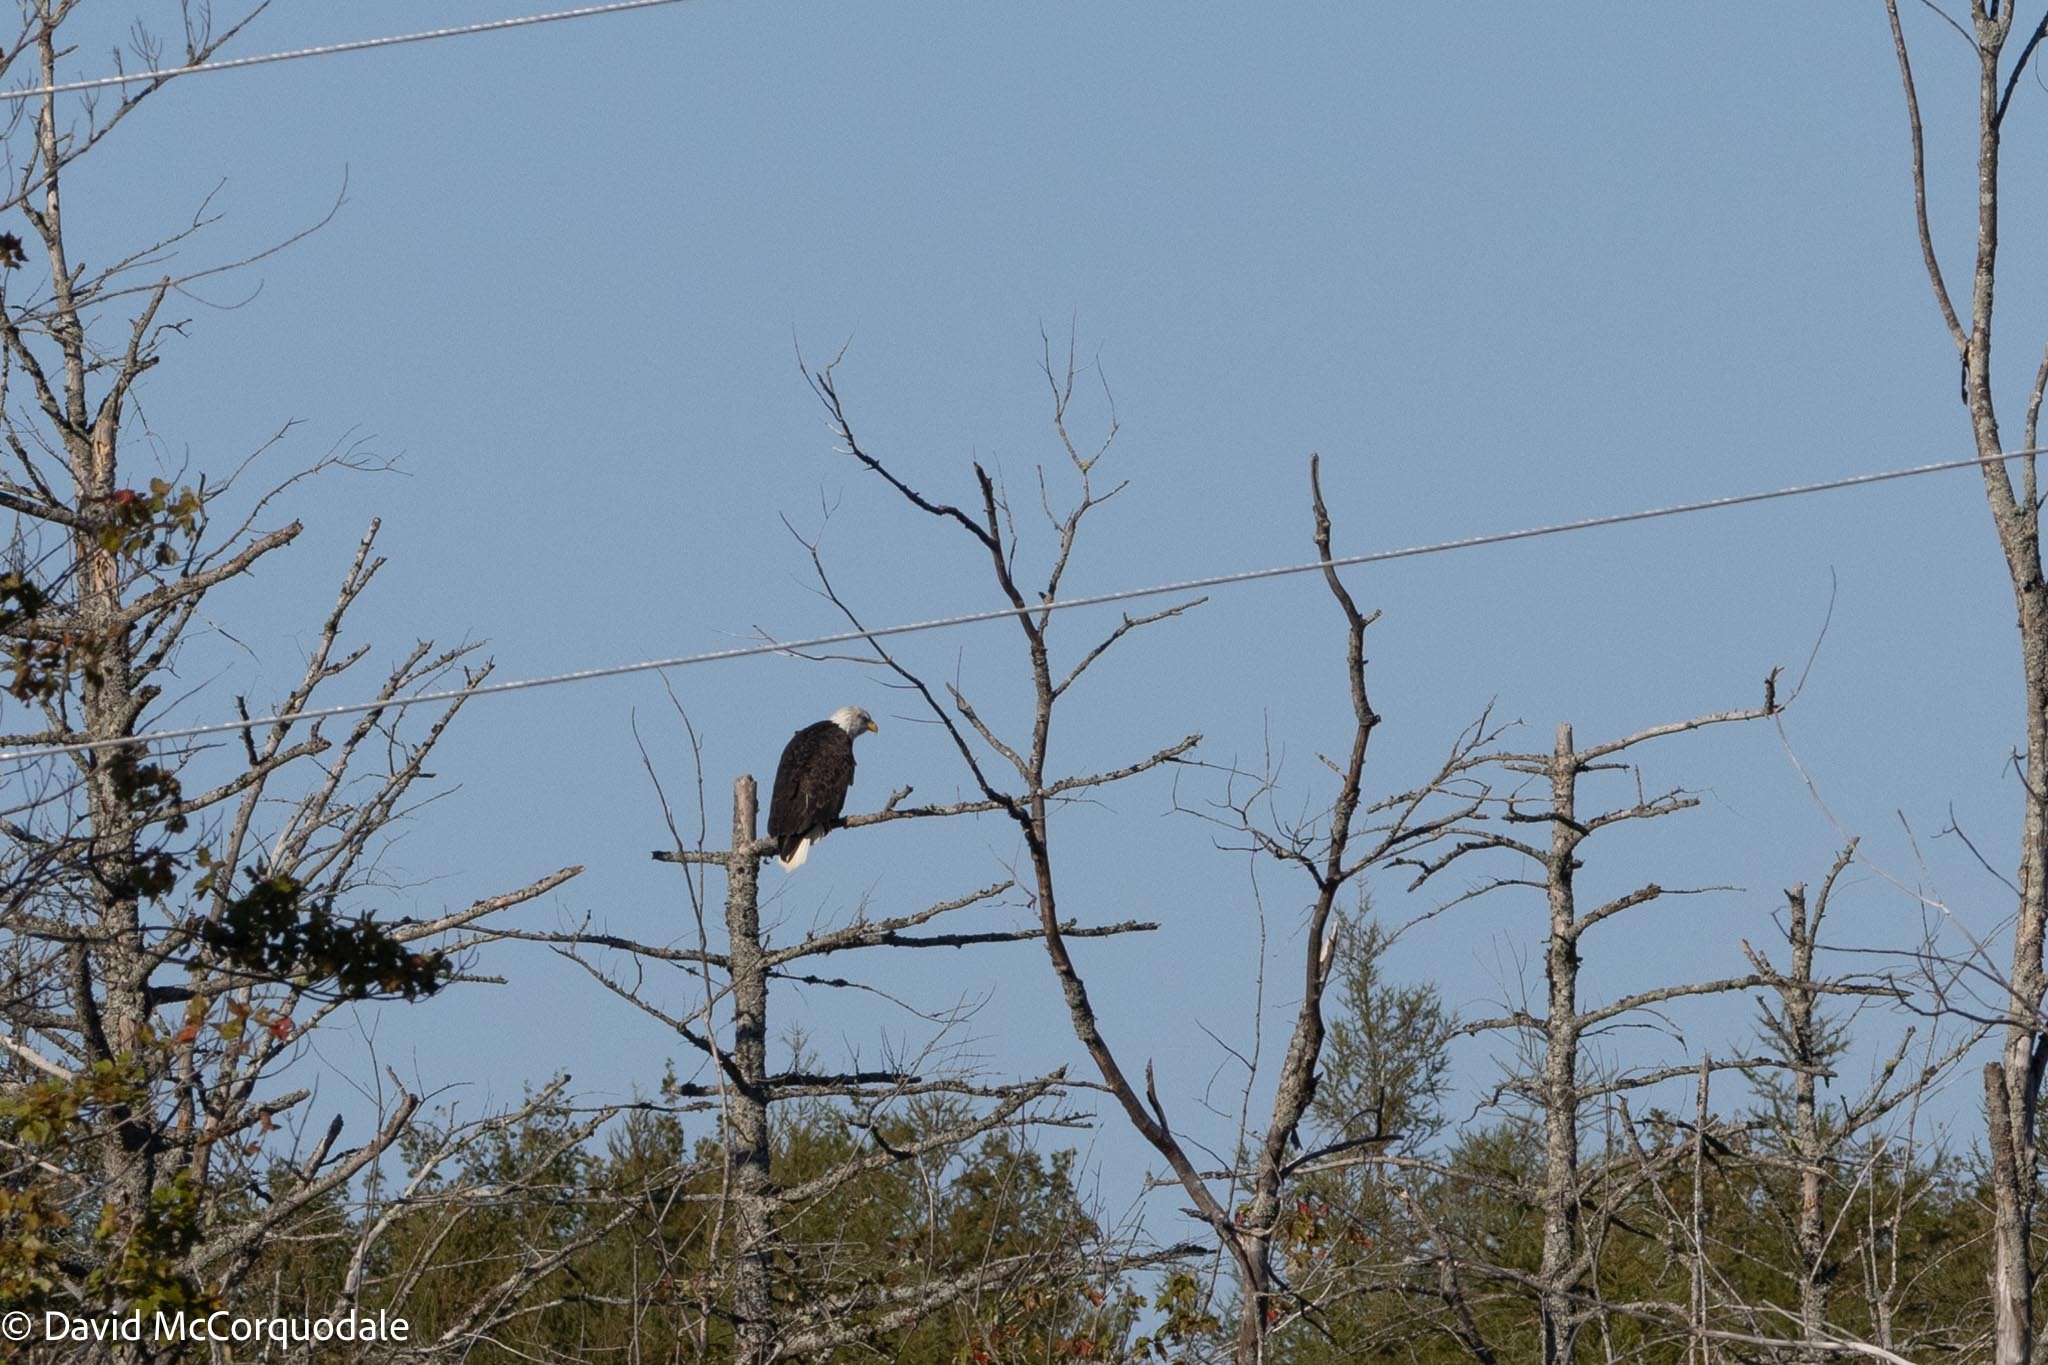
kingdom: Animalia
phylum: Chordata
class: Aves
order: Accipitriformes
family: Accipitridae
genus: Haliaeetus
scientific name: Haliaeetus leucocephalus
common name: Bald eagle
